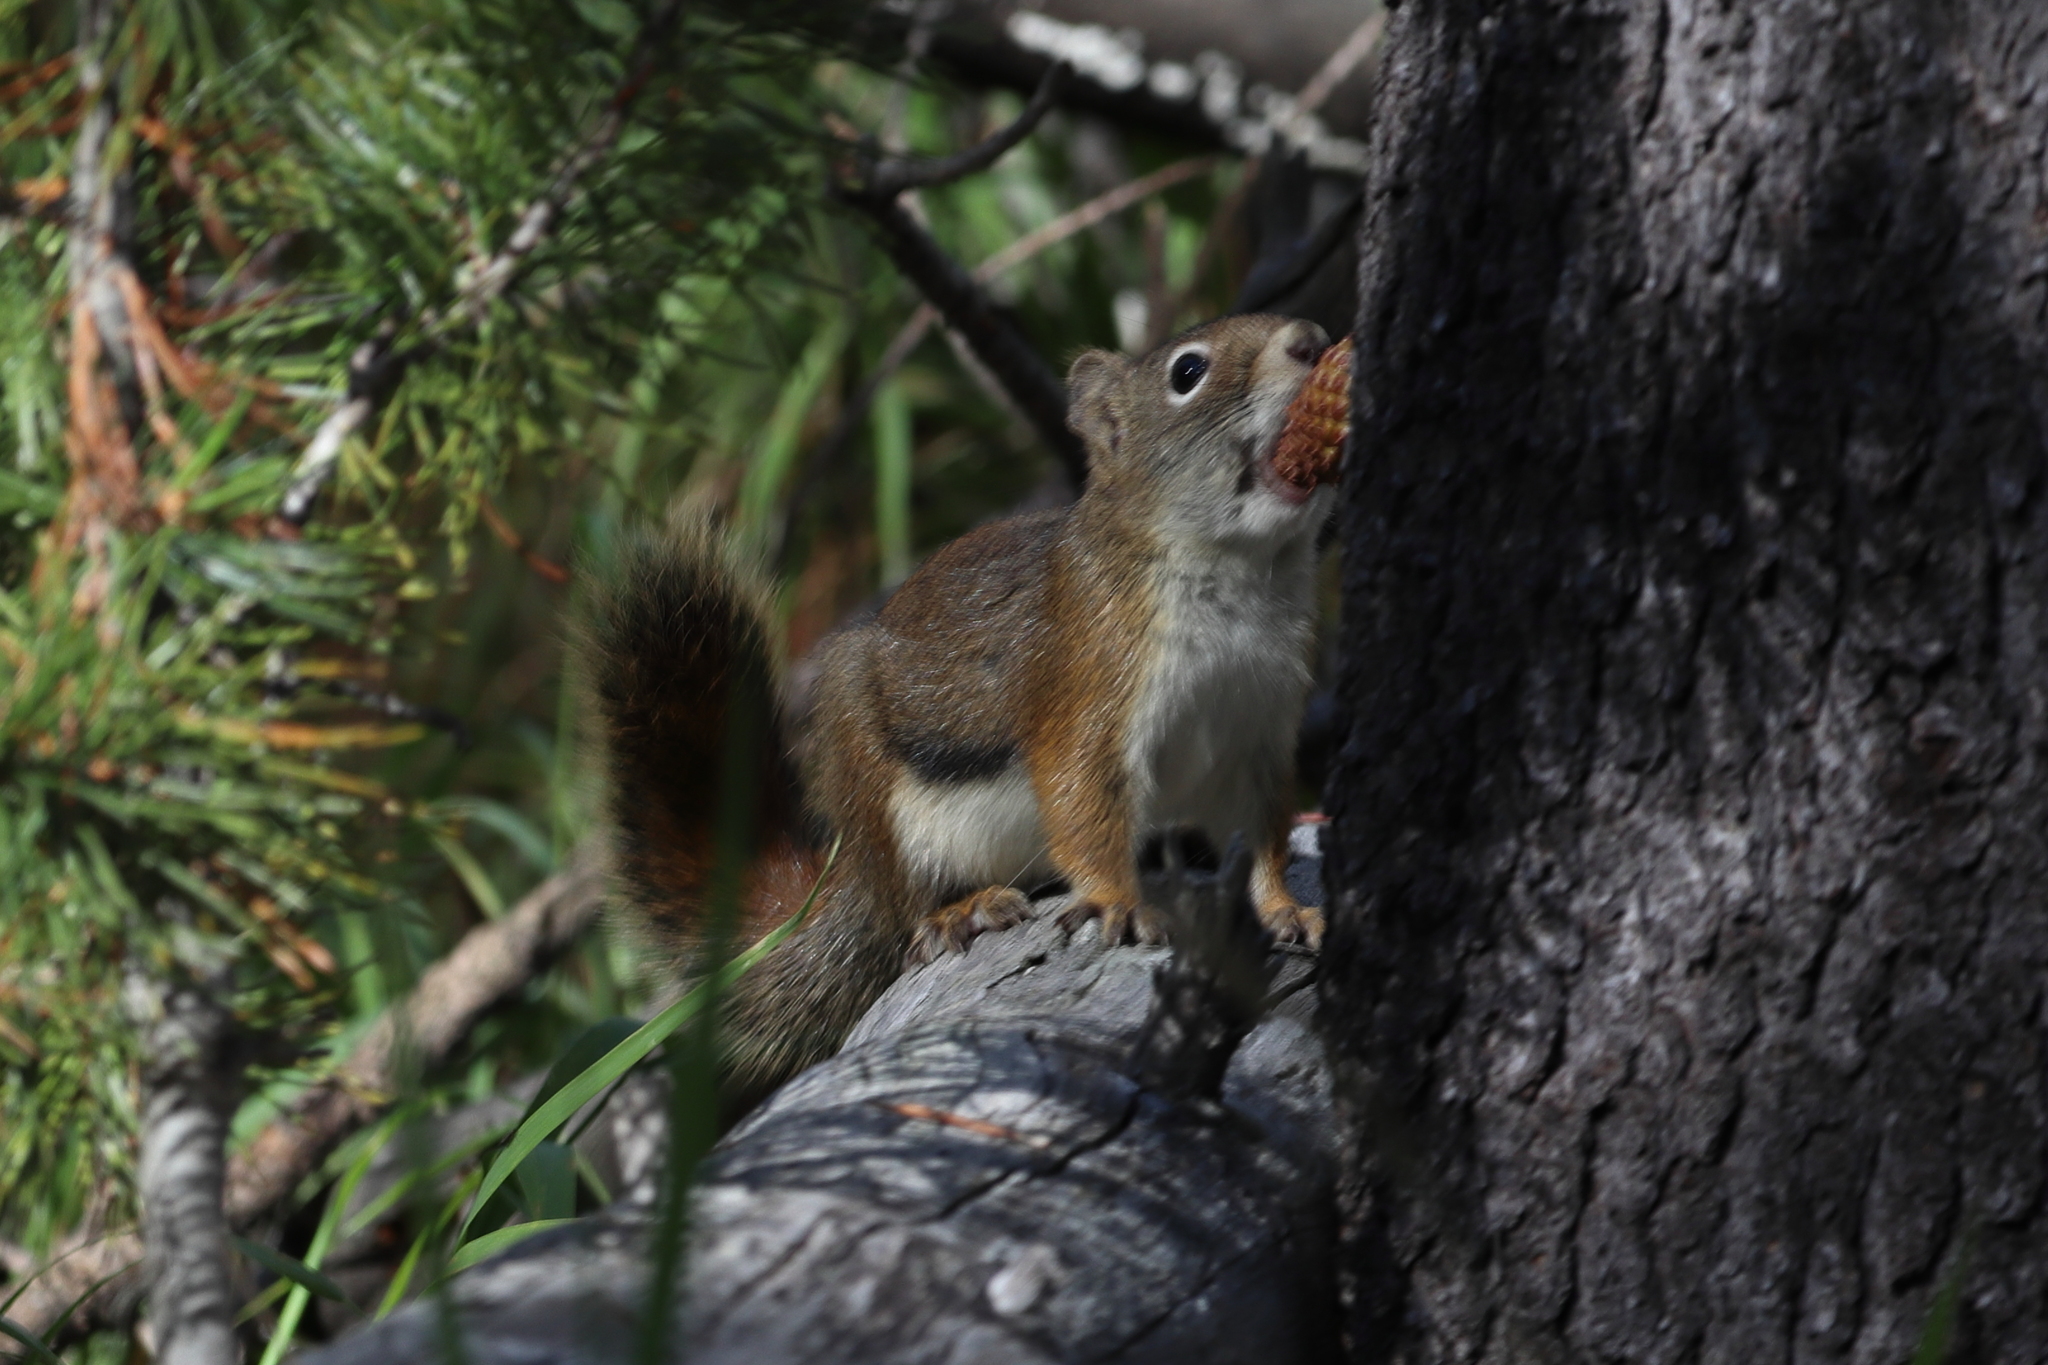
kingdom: Animalia
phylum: Chordata
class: Mammalia
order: Rodentia
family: Sciuridae
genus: Tamiasciurus
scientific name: Tamiasciurus hudsonicus
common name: Red squirrel
